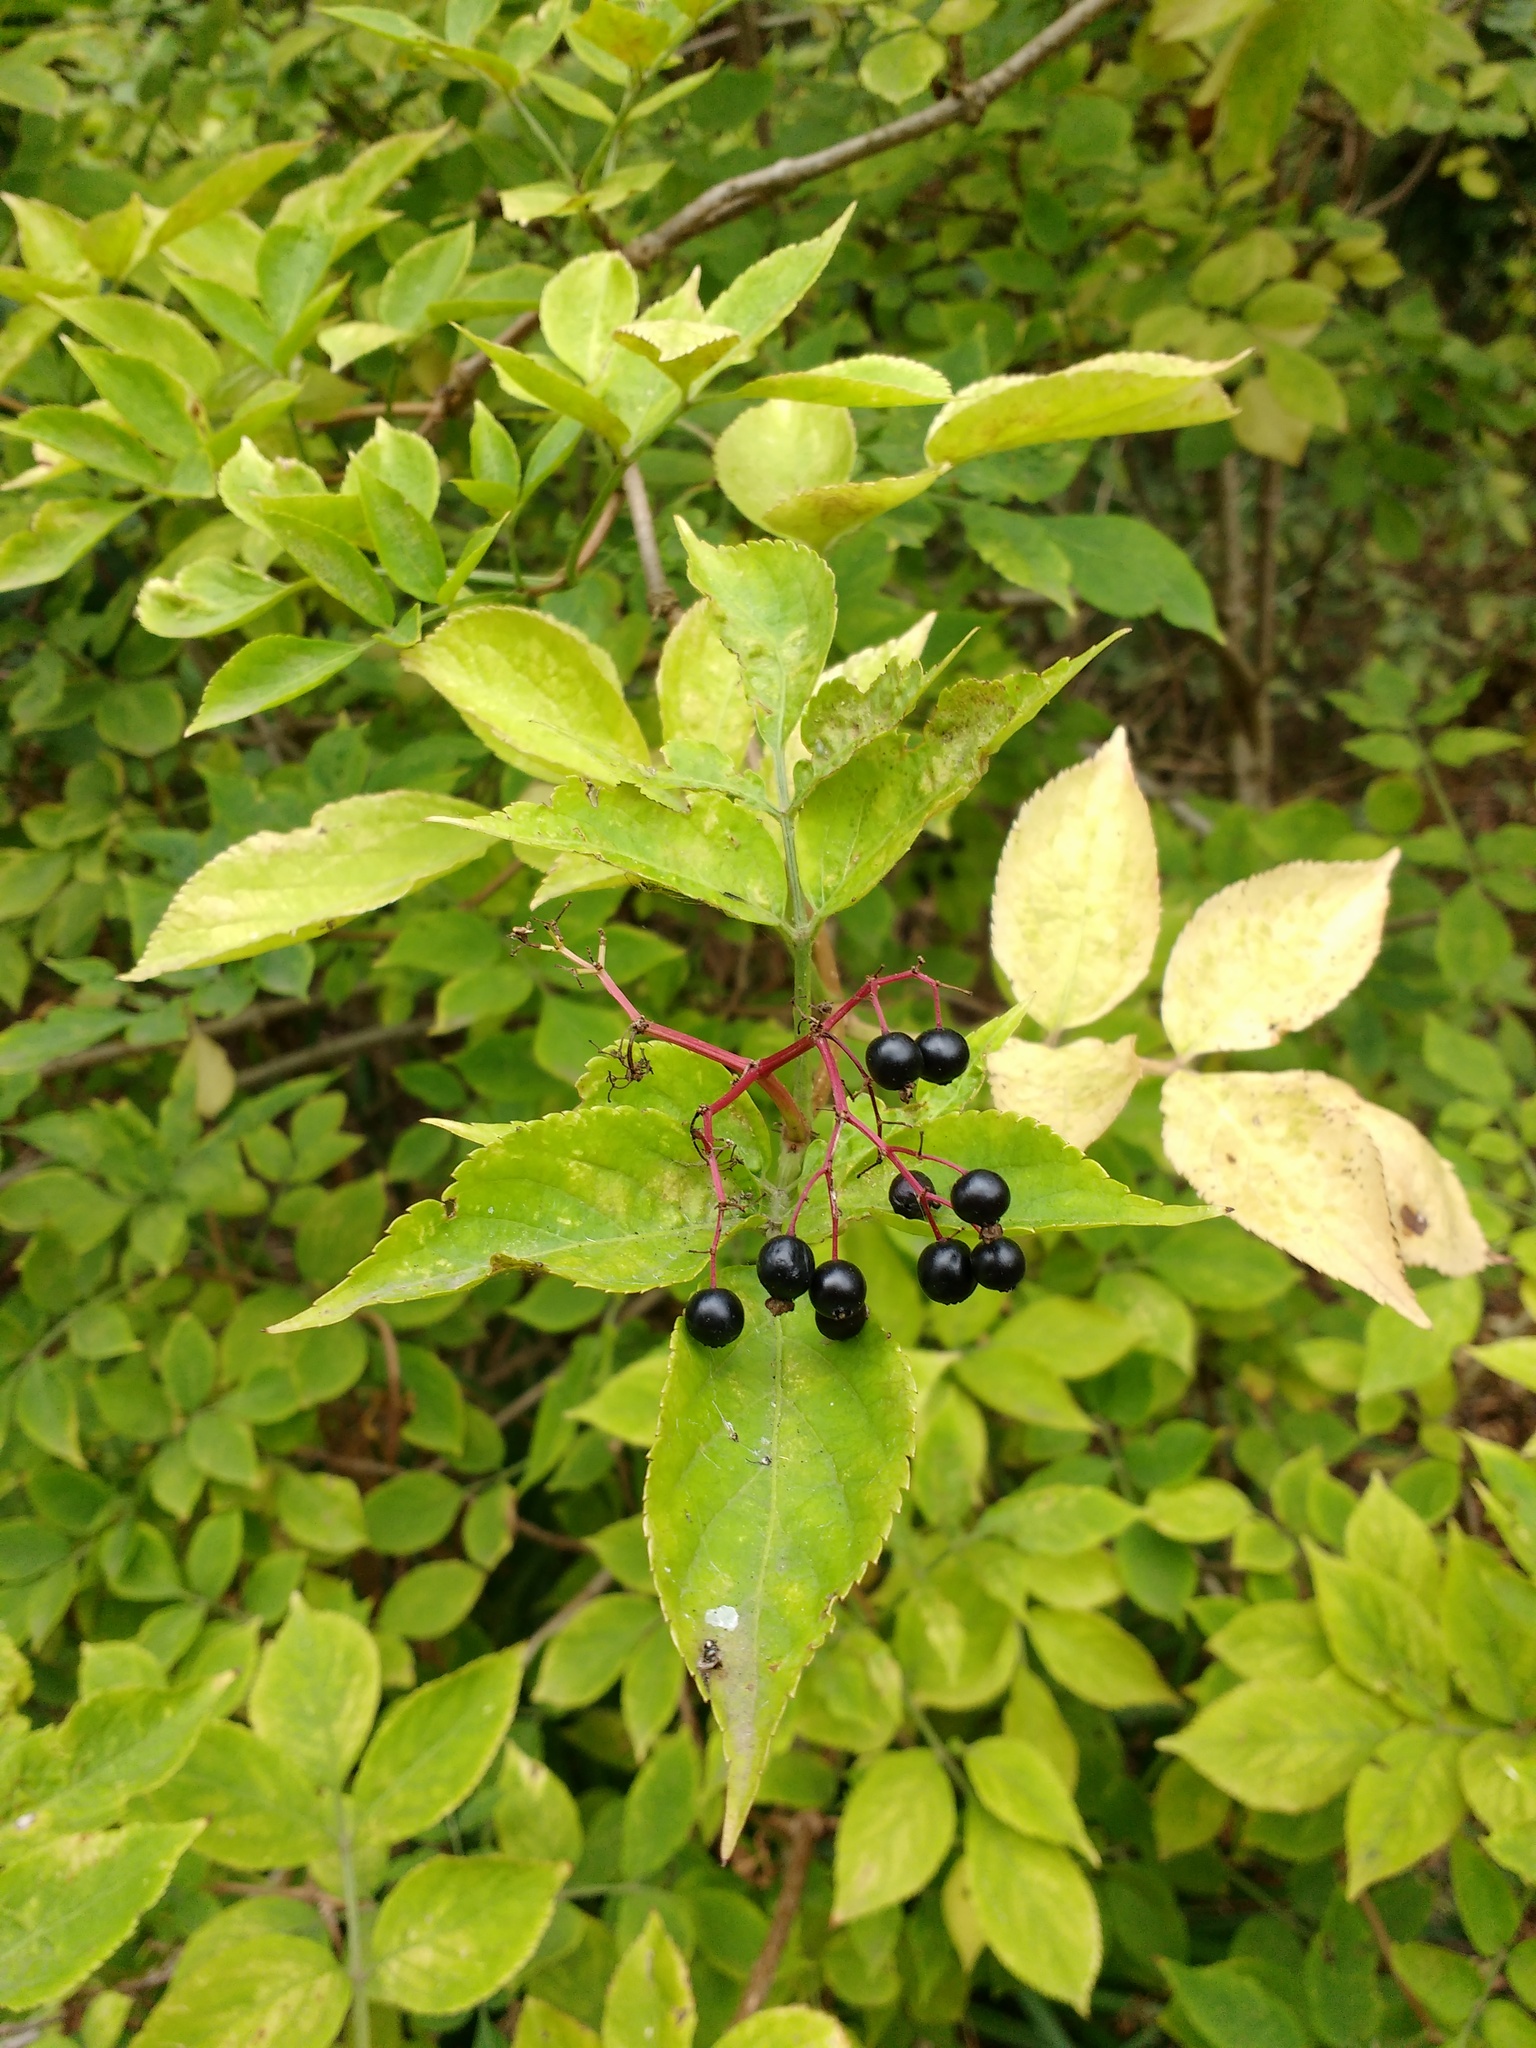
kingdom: Plantae
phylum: Tracheophyta
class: Magnoliopsida
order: Dipsacales
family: Viburnaceae
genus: Sambucus
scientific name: Sambucus nigra
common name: Elder
